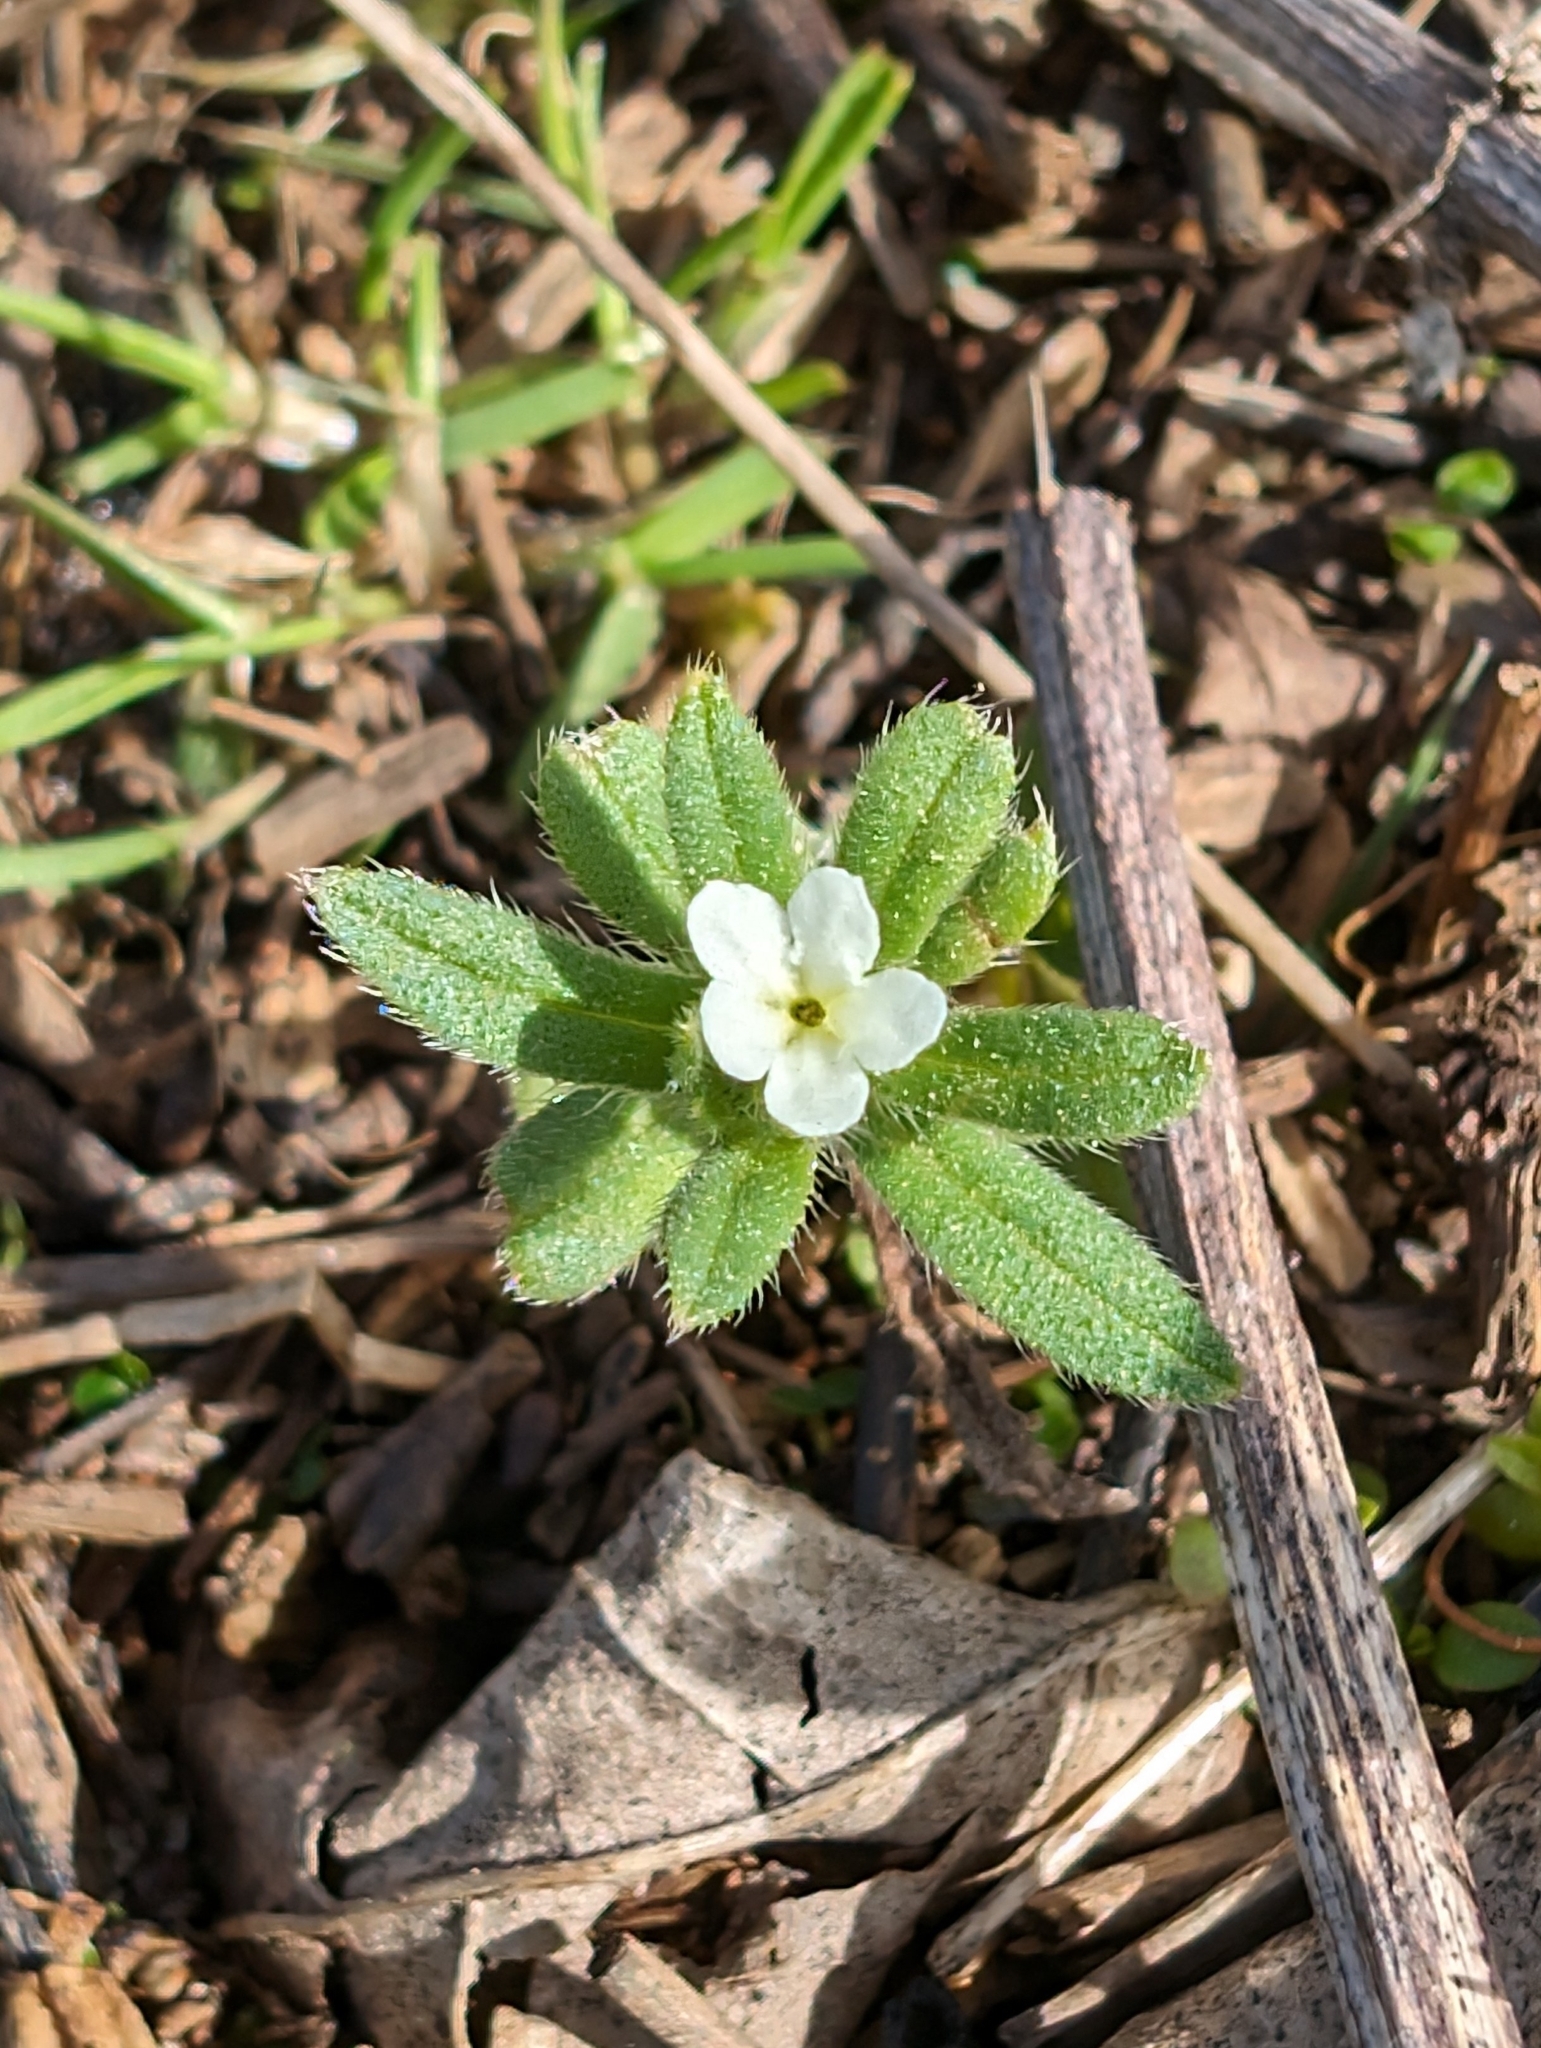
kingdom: Plantae
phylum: Tracheophyta
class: Magnoliopsida
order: Boraginales
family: Boraginaceae
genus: Buglossoides
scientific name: Buglossoides arvensis
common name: Corn gromwell
